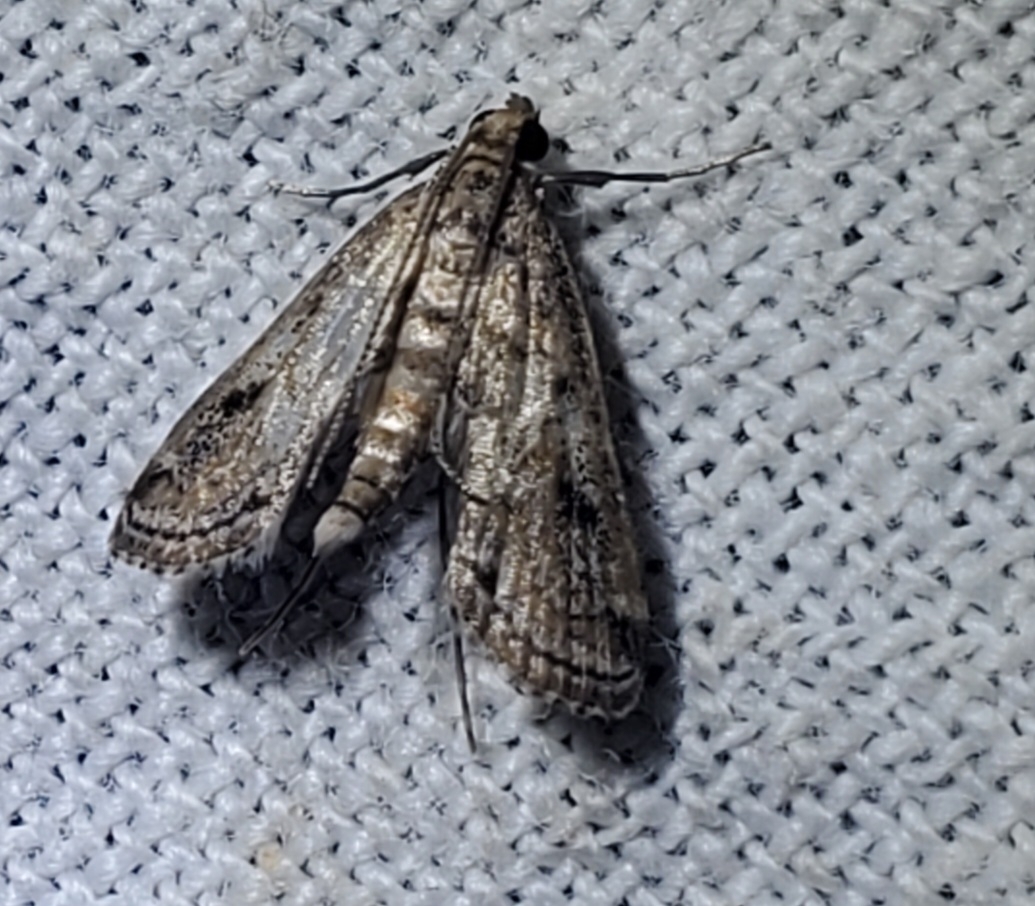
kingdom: Animalia
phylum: Arthropoda
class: Insecta
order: Lepidoptera
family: Crambidae
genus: Parapoynx
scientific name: Parapoynx allionealis
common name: Bladderwort casemaker
